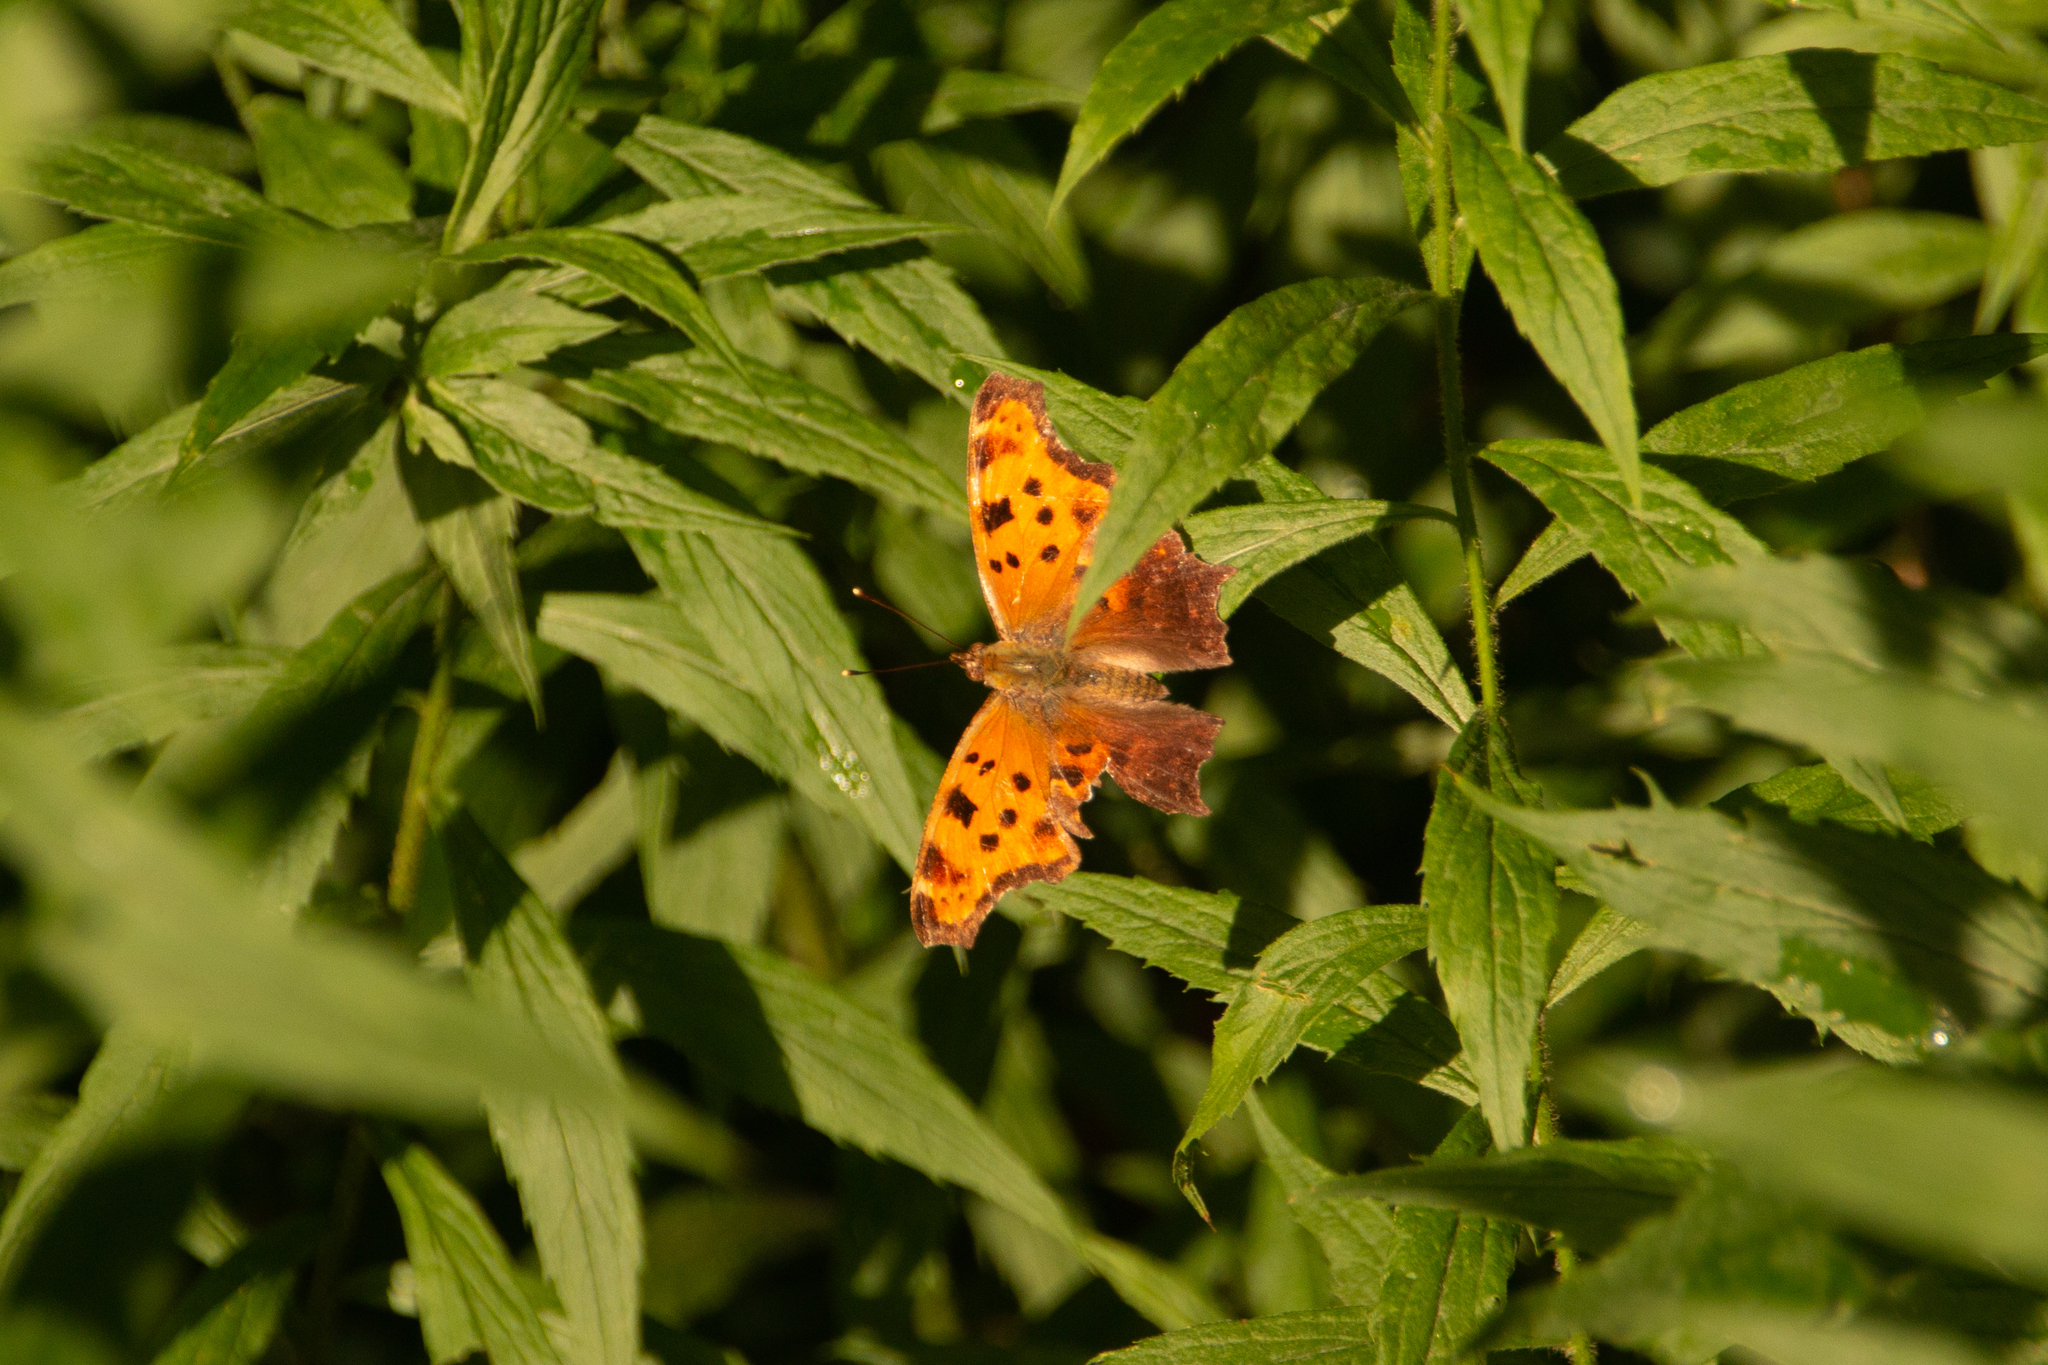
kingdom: Animalia
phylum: Arthropoda
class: Insecta
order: Lepidoptera
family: Nymphalidae
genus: Polygonia
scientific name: Polygonia comma
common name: Eastern comma
